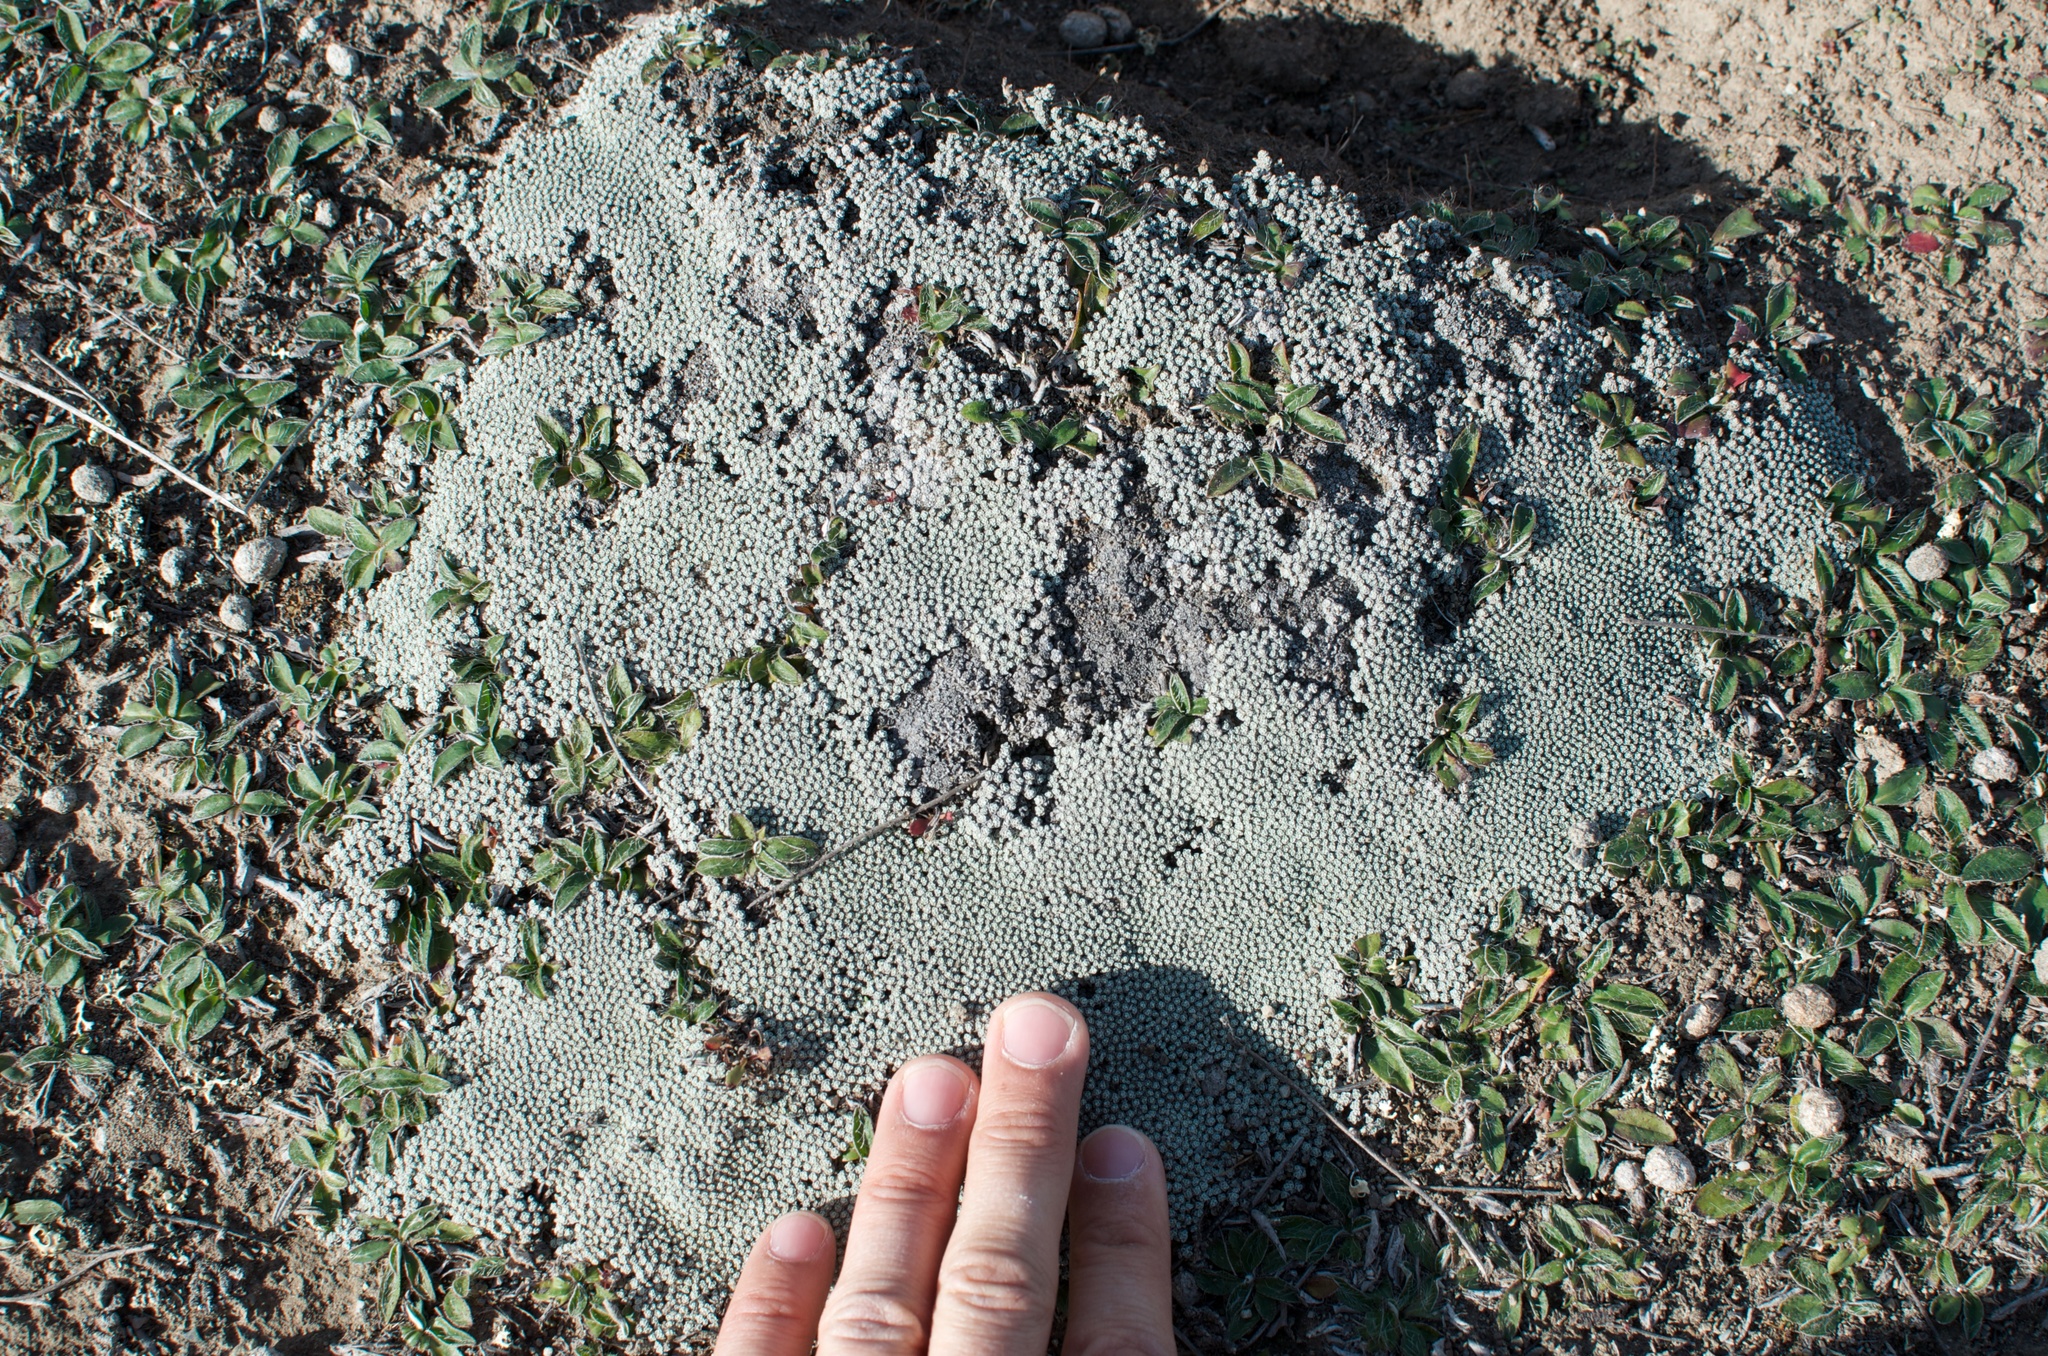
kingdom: Plantae
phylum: Tracheophyta
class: Magnoliopsida
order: Asterales
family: Asteraceae
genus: Raoulia
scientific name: Raoulia australis
